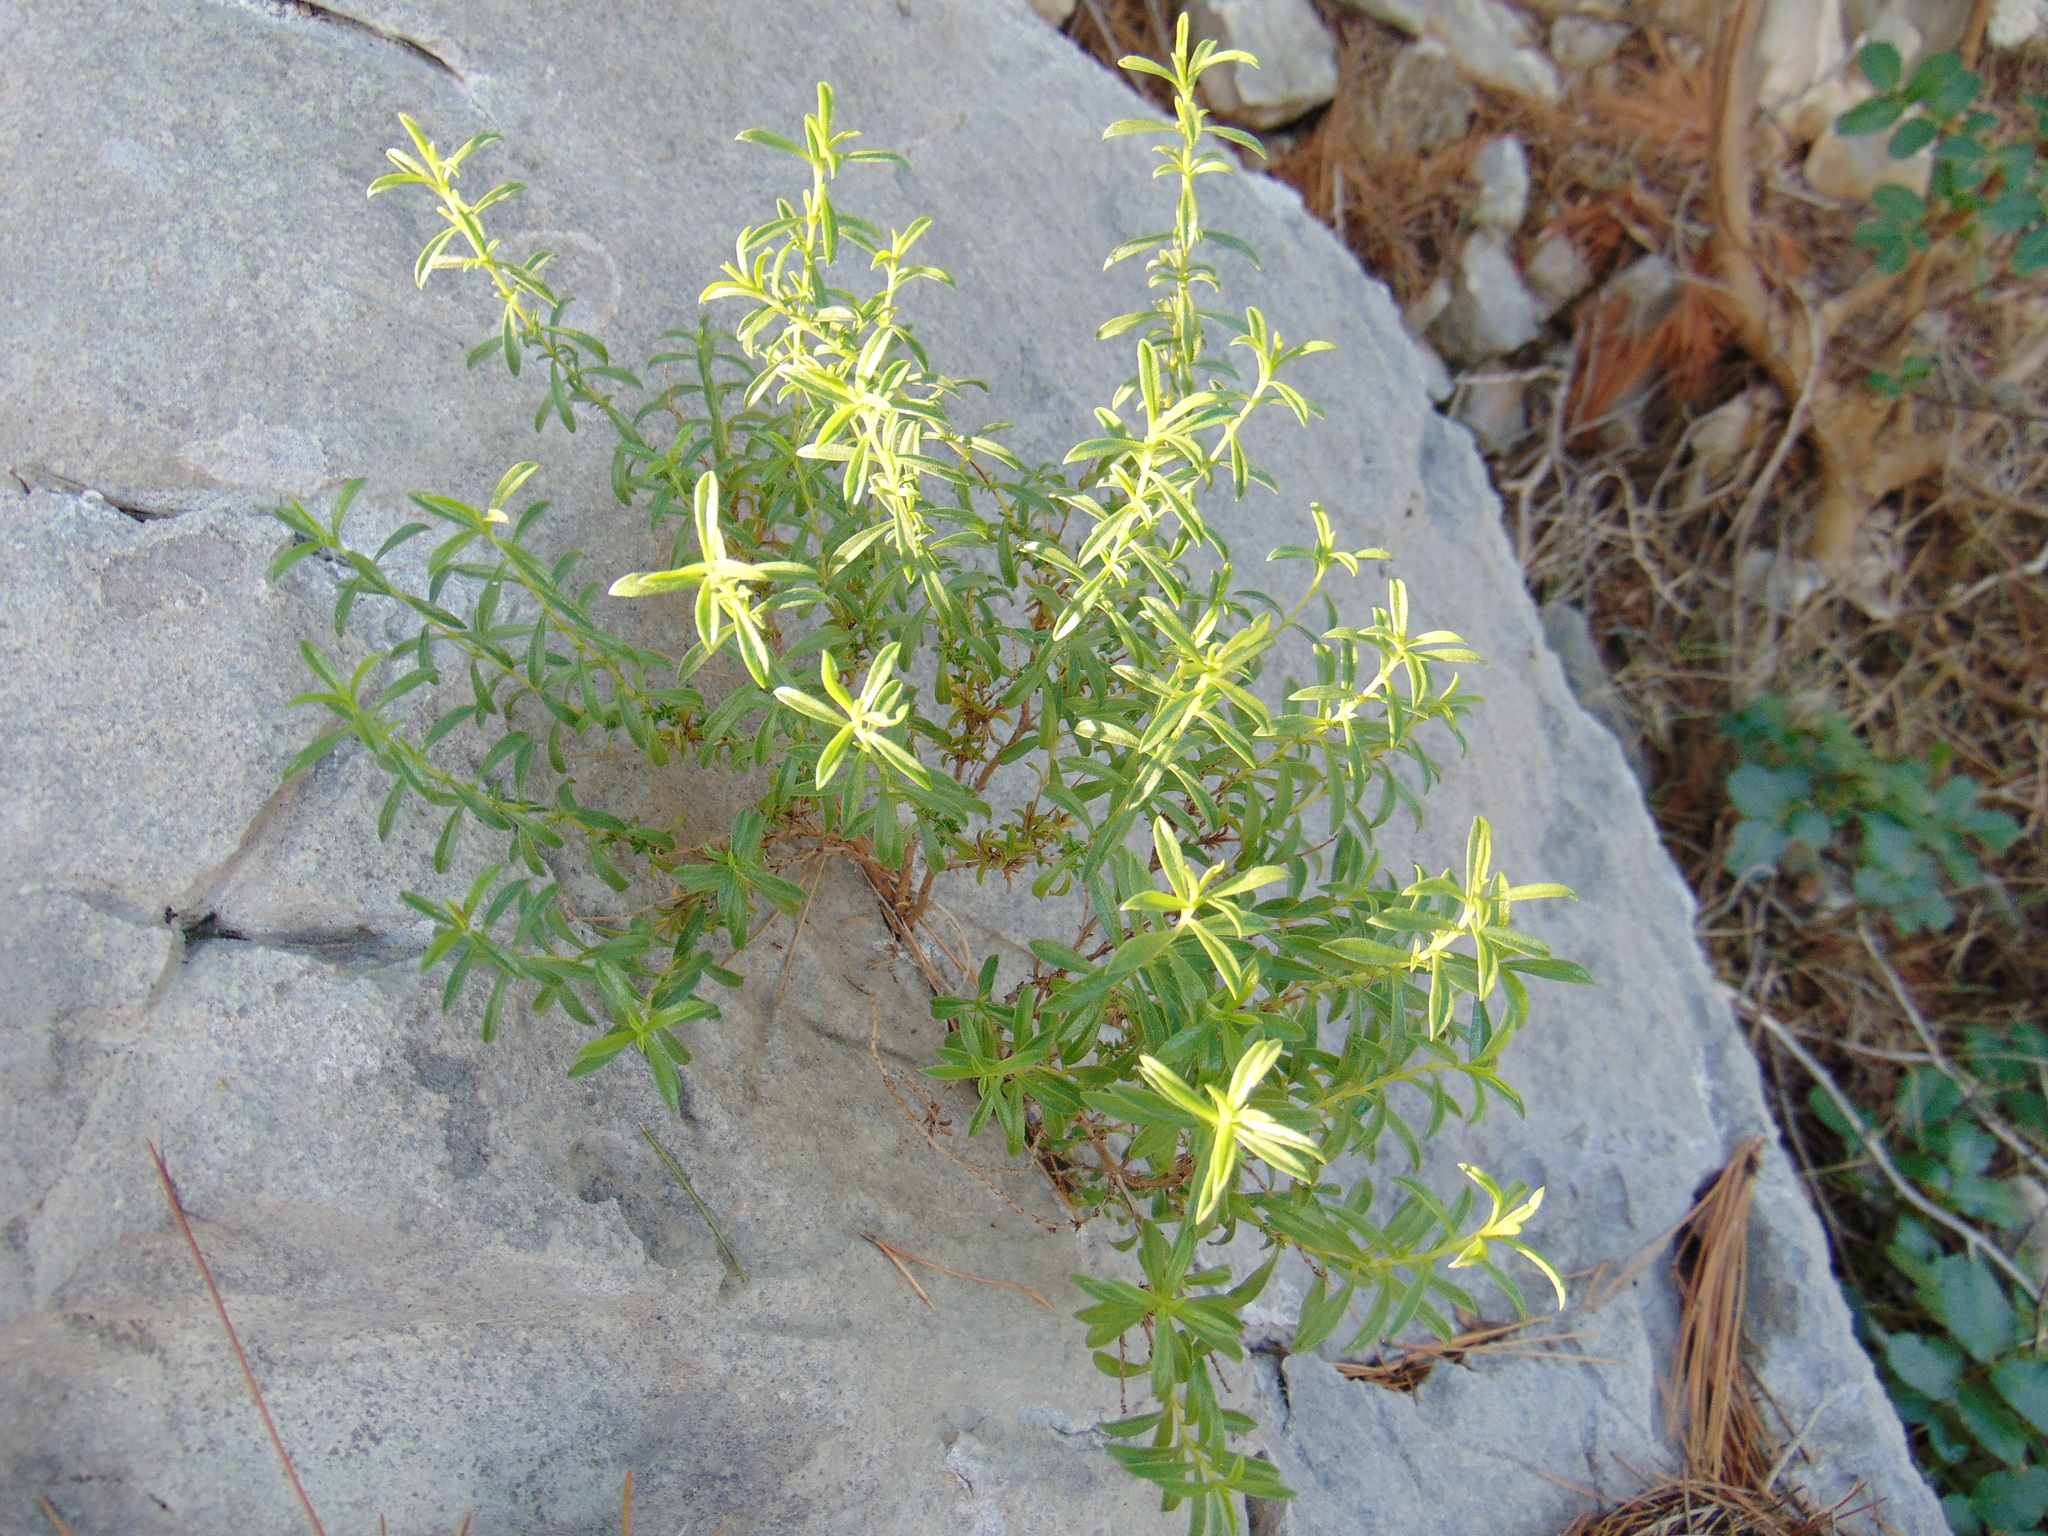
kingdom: Plantae
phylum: Tracheophyta
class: Magnoliopsida
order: Lamiales
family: Lamiaceae
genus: Satureja
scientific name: Satureja montana
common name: Winter savory
